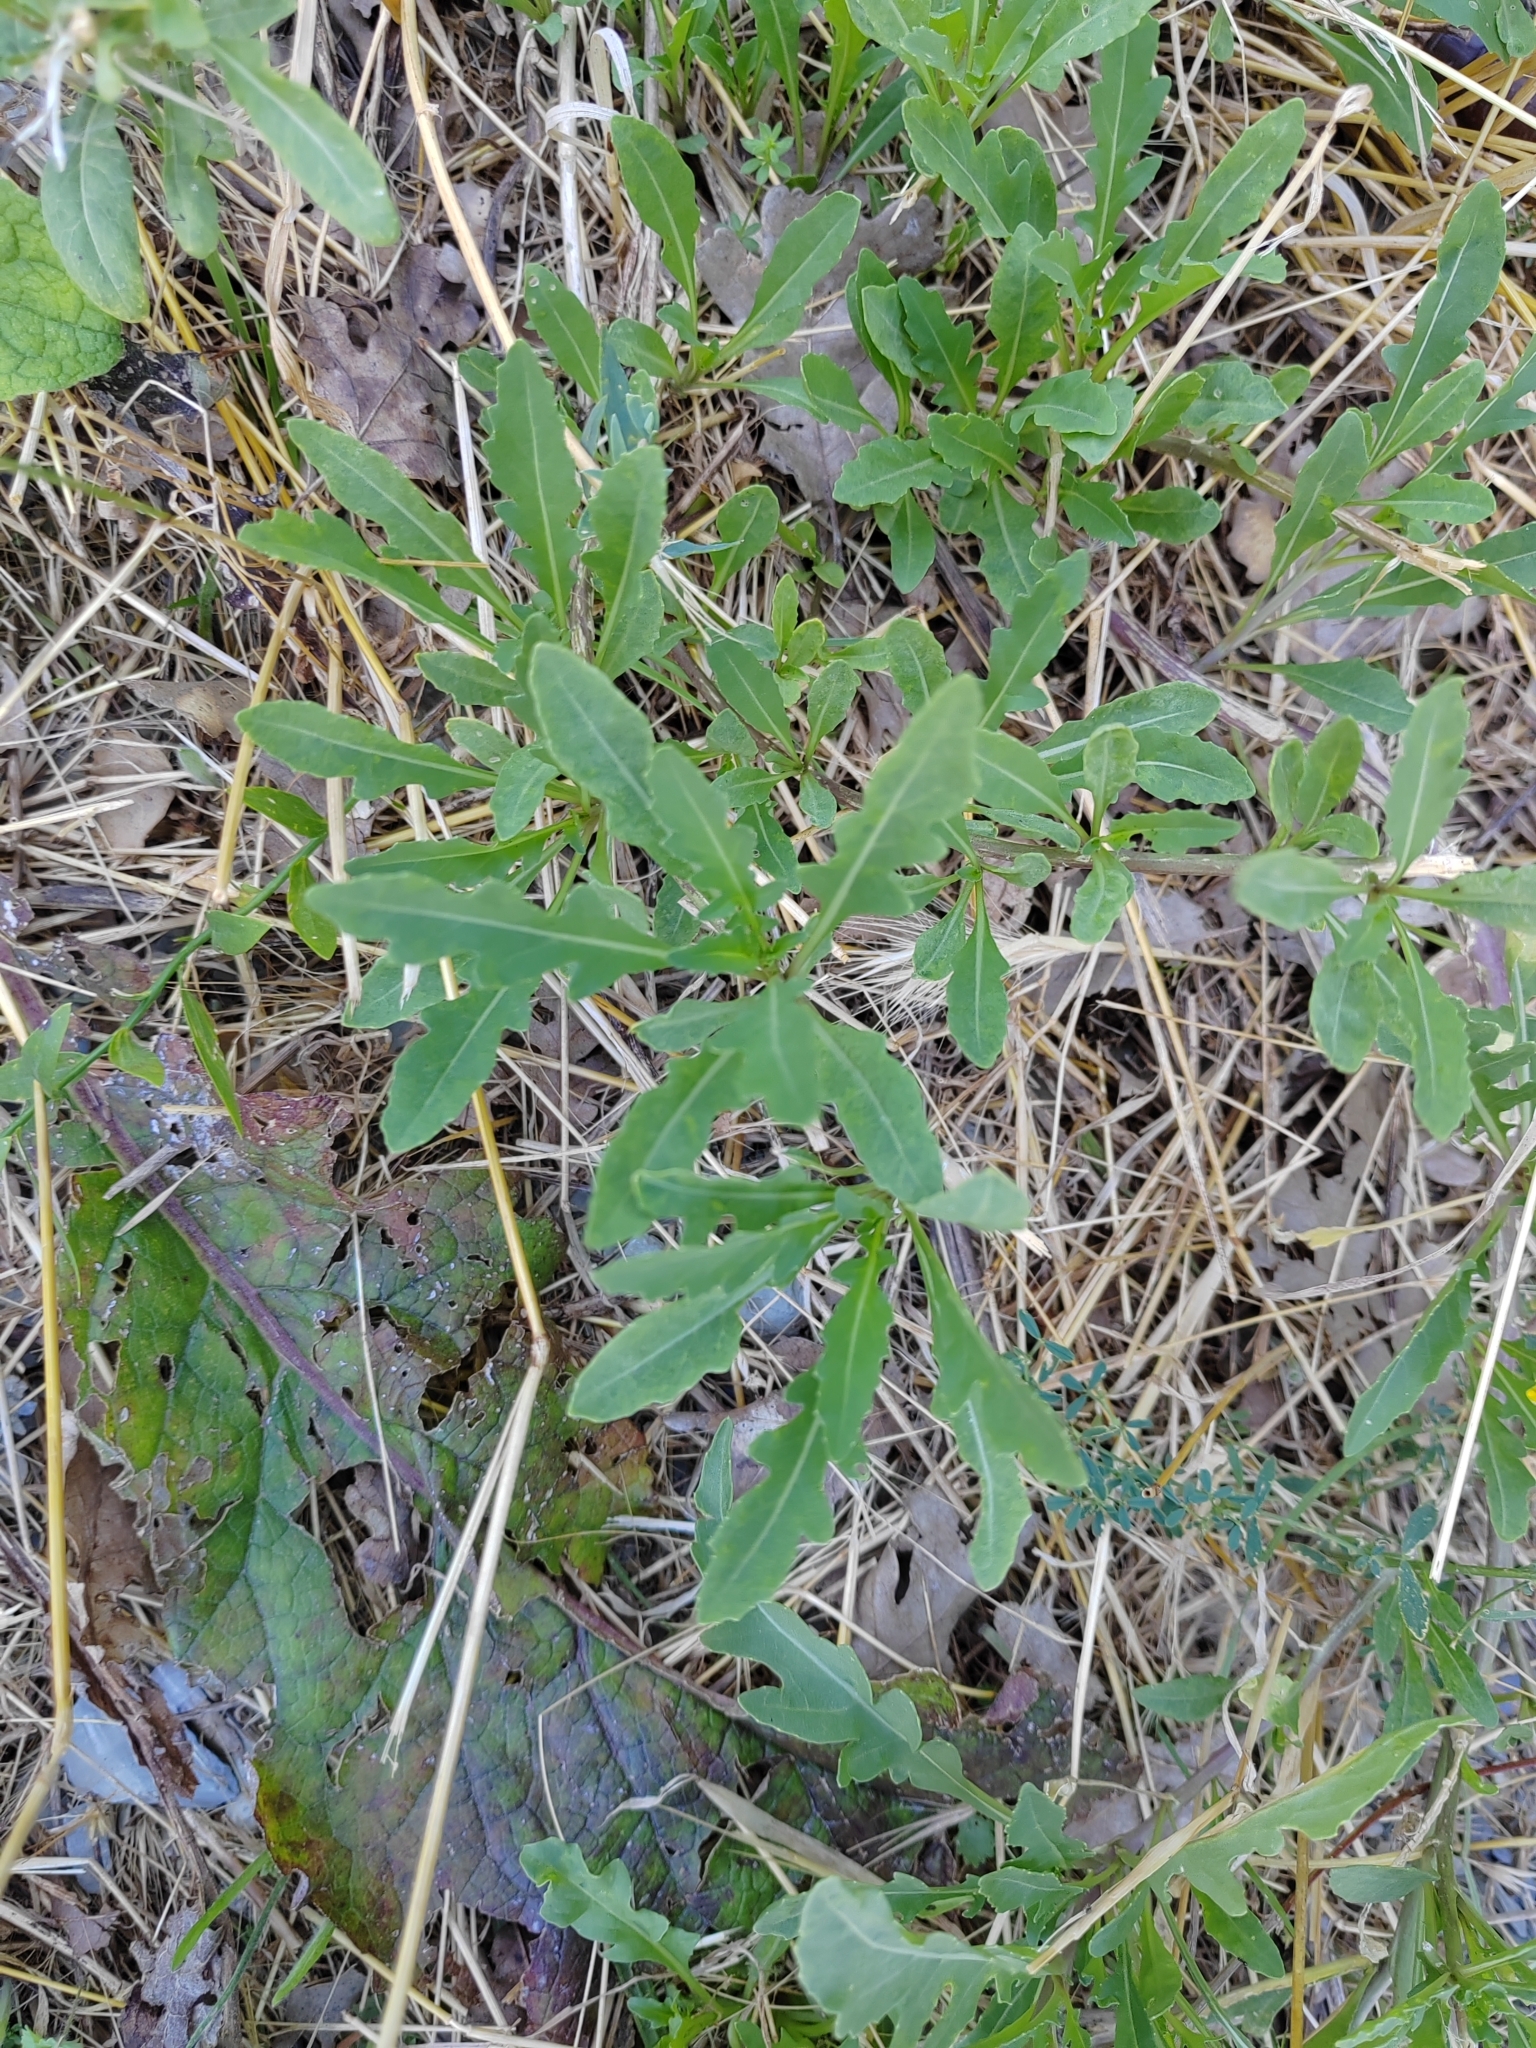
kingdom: Plantae
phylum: Tracheophyta
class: Magnoliopsida
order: Brassicales
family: Brassicaceae
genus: Diplotaxis
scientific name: Diplotaxis tenuifolia
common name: Perennial wall-rocket
